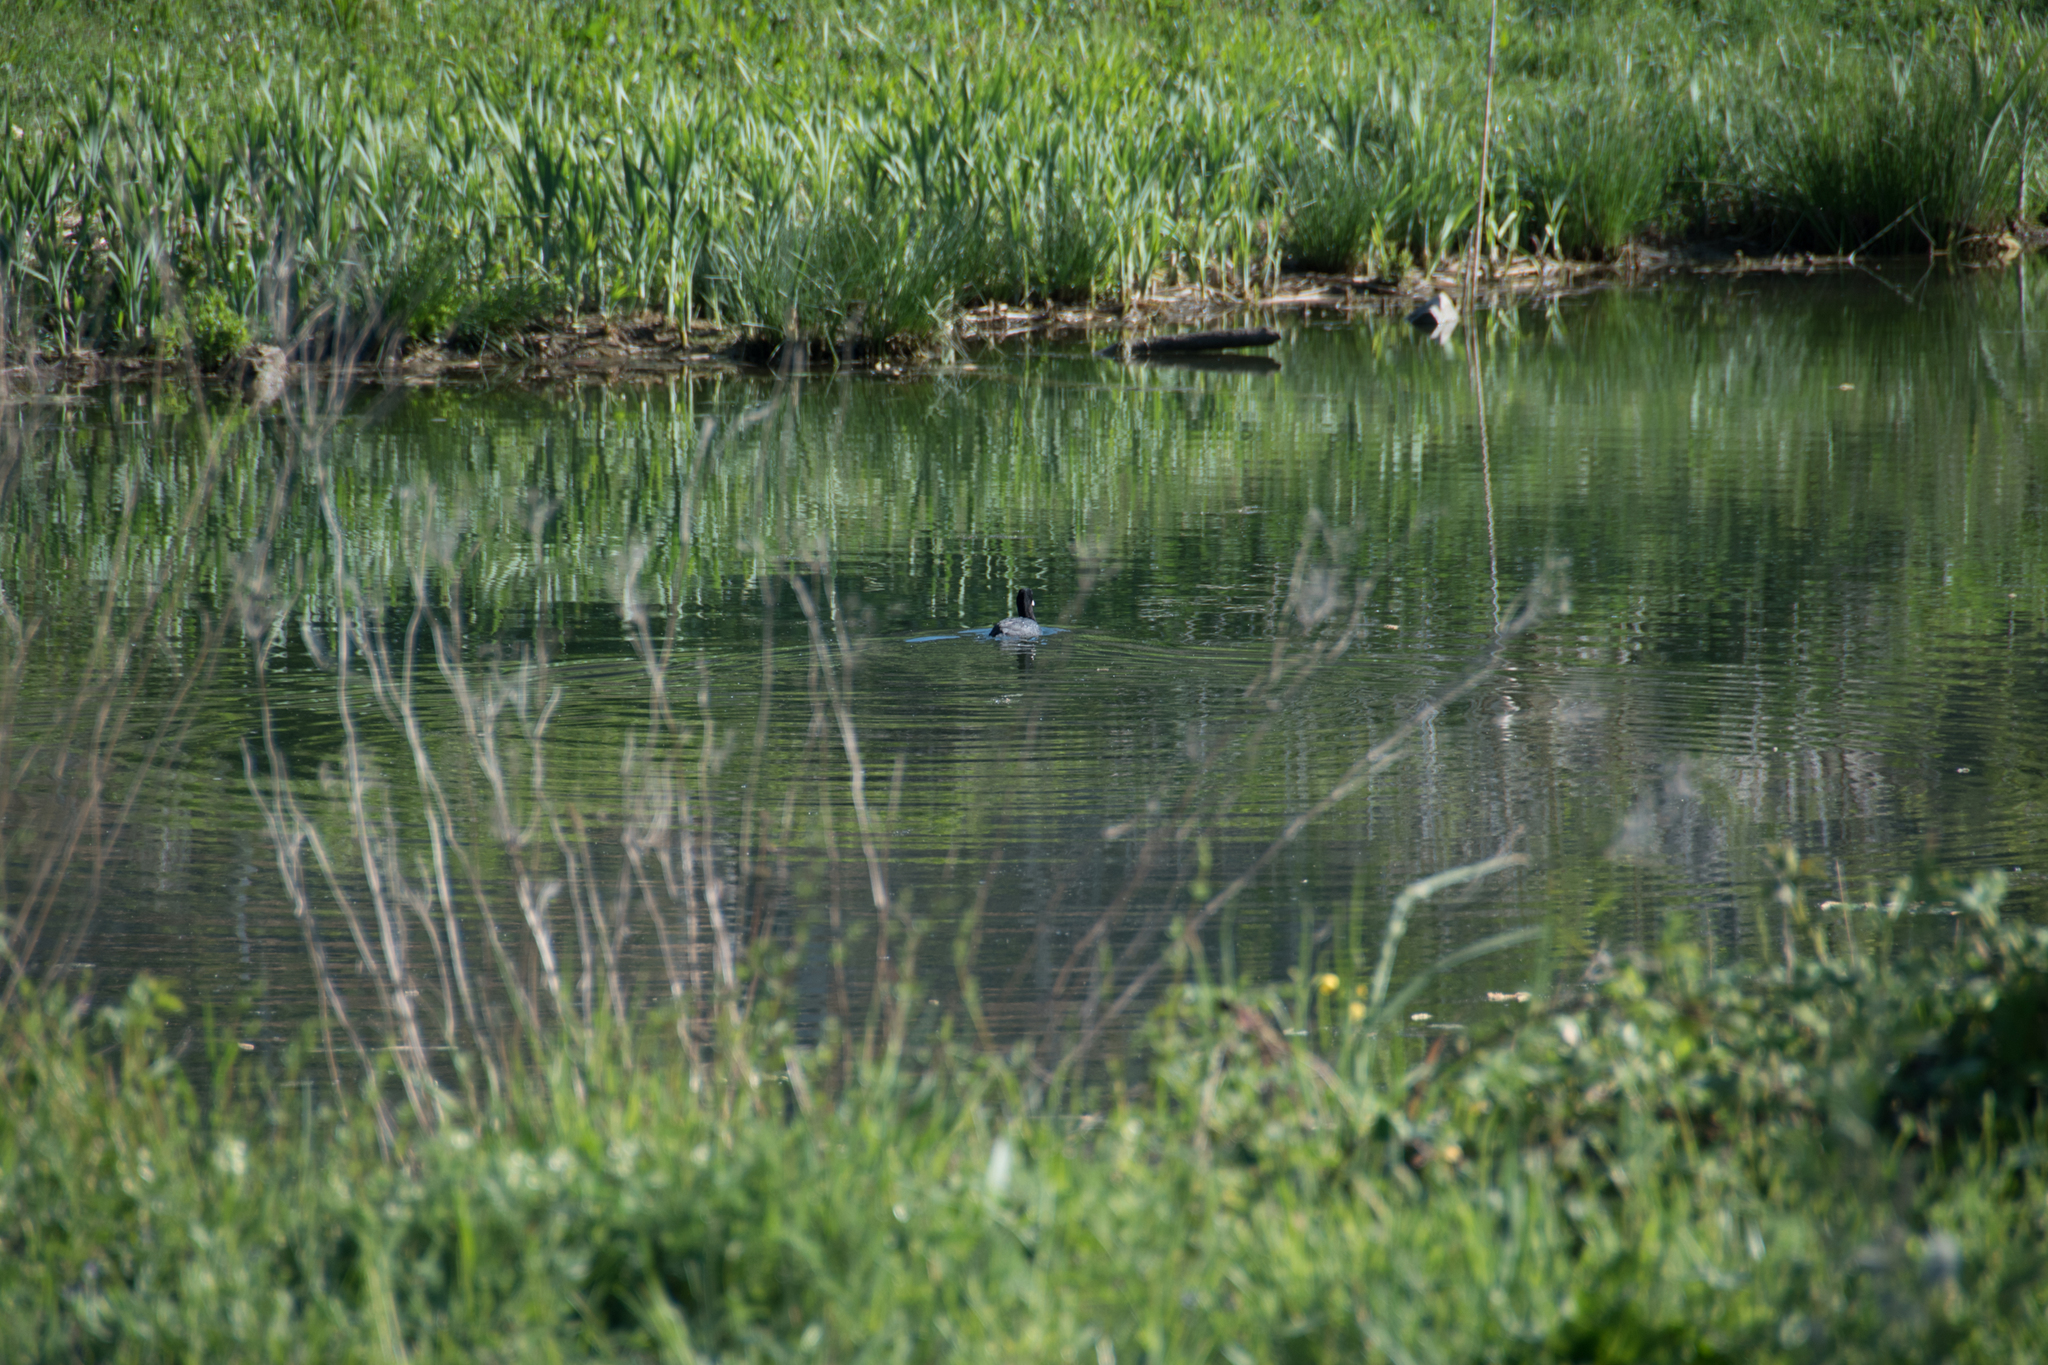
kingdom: Animalia
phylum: Chordata
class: Aves
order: Gruiformes
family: Rallidae
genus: Fulica
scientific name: Fulica atra
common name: Eurasian coot
